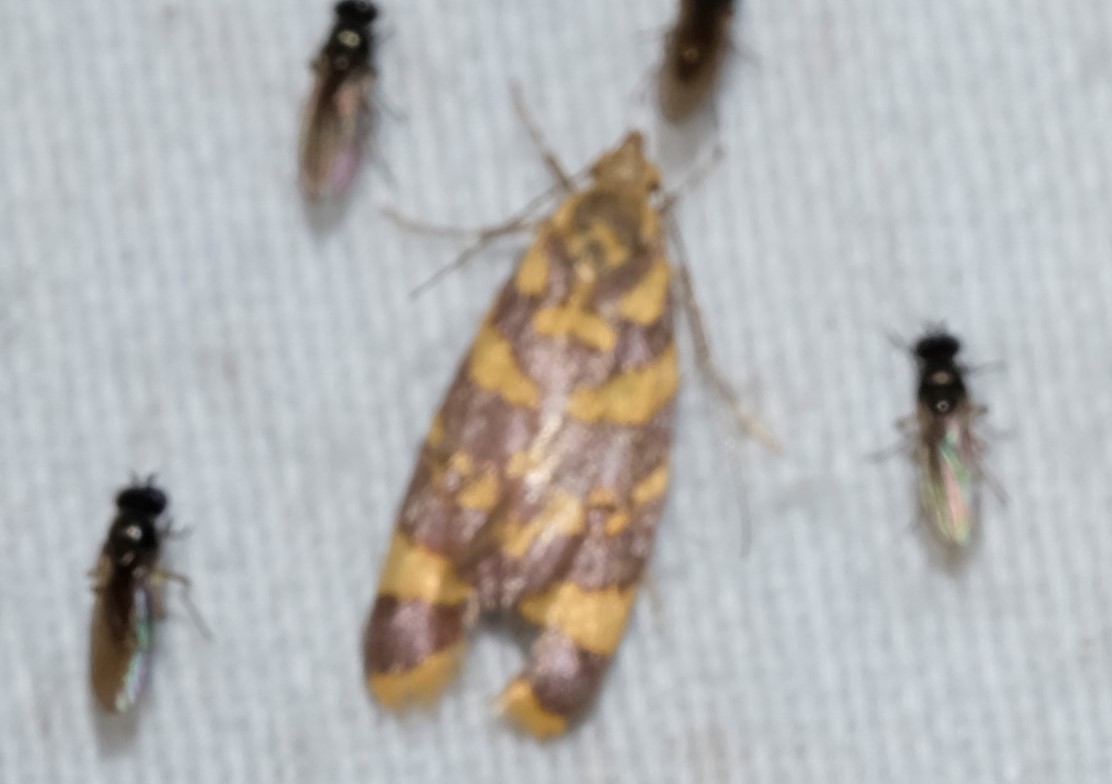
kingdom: Animalia
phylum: Arthropoda
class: Insecta
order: Lepidoptera
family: Oecophoridae
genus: Tisobarica
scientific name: Tisobarica thyteria
